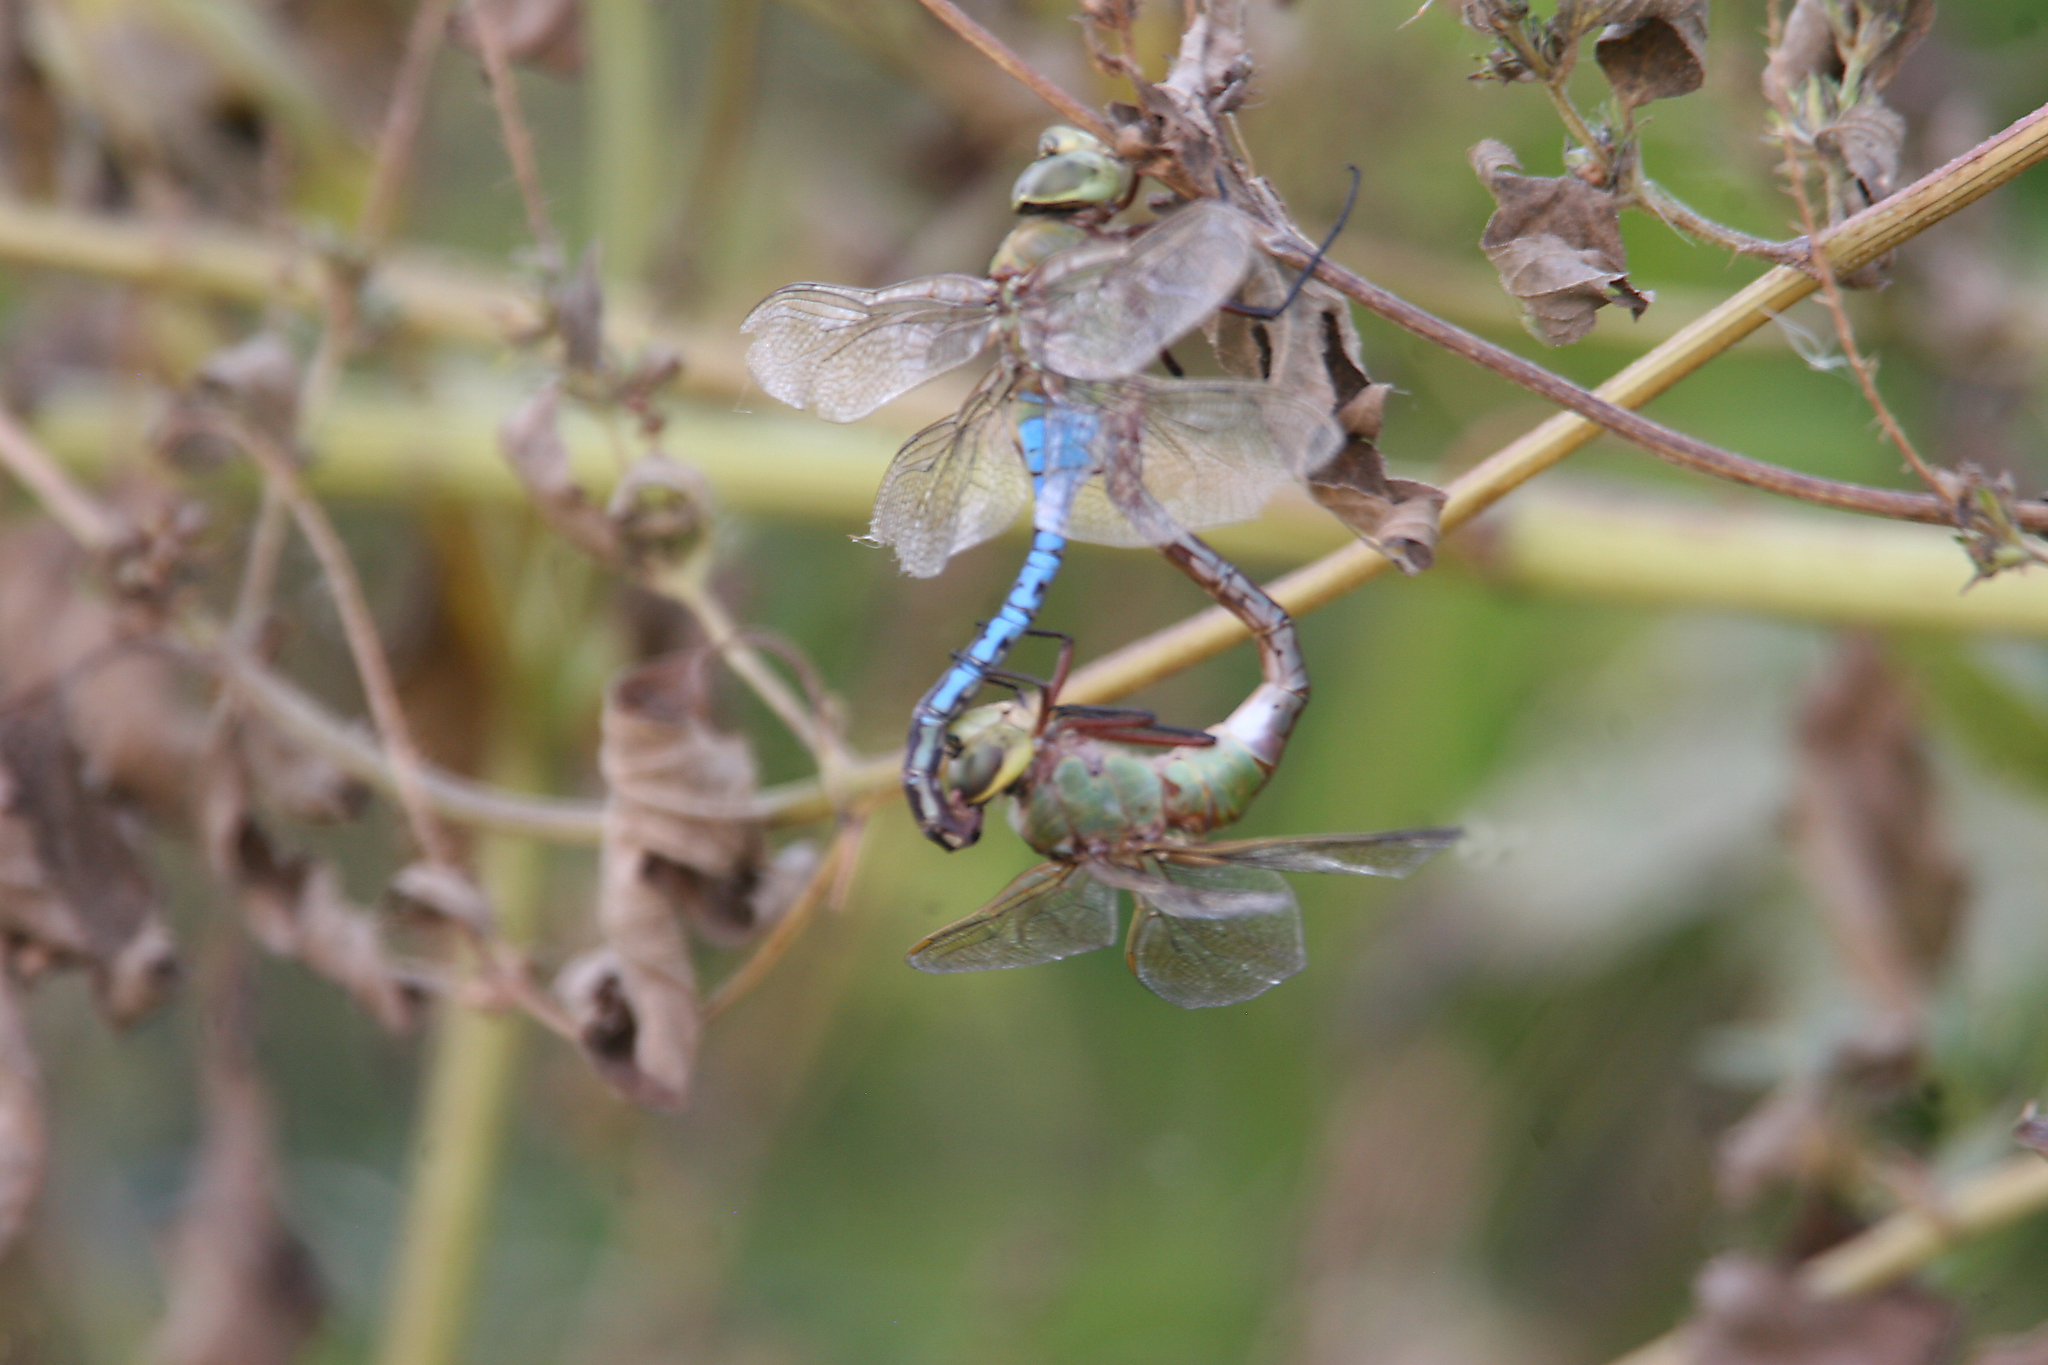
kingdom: Animalia
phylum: Arthropoda
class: Insecta
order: Odonata
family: Aeshnidae
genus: Anax
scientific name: Anax junius
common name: Common green darner
